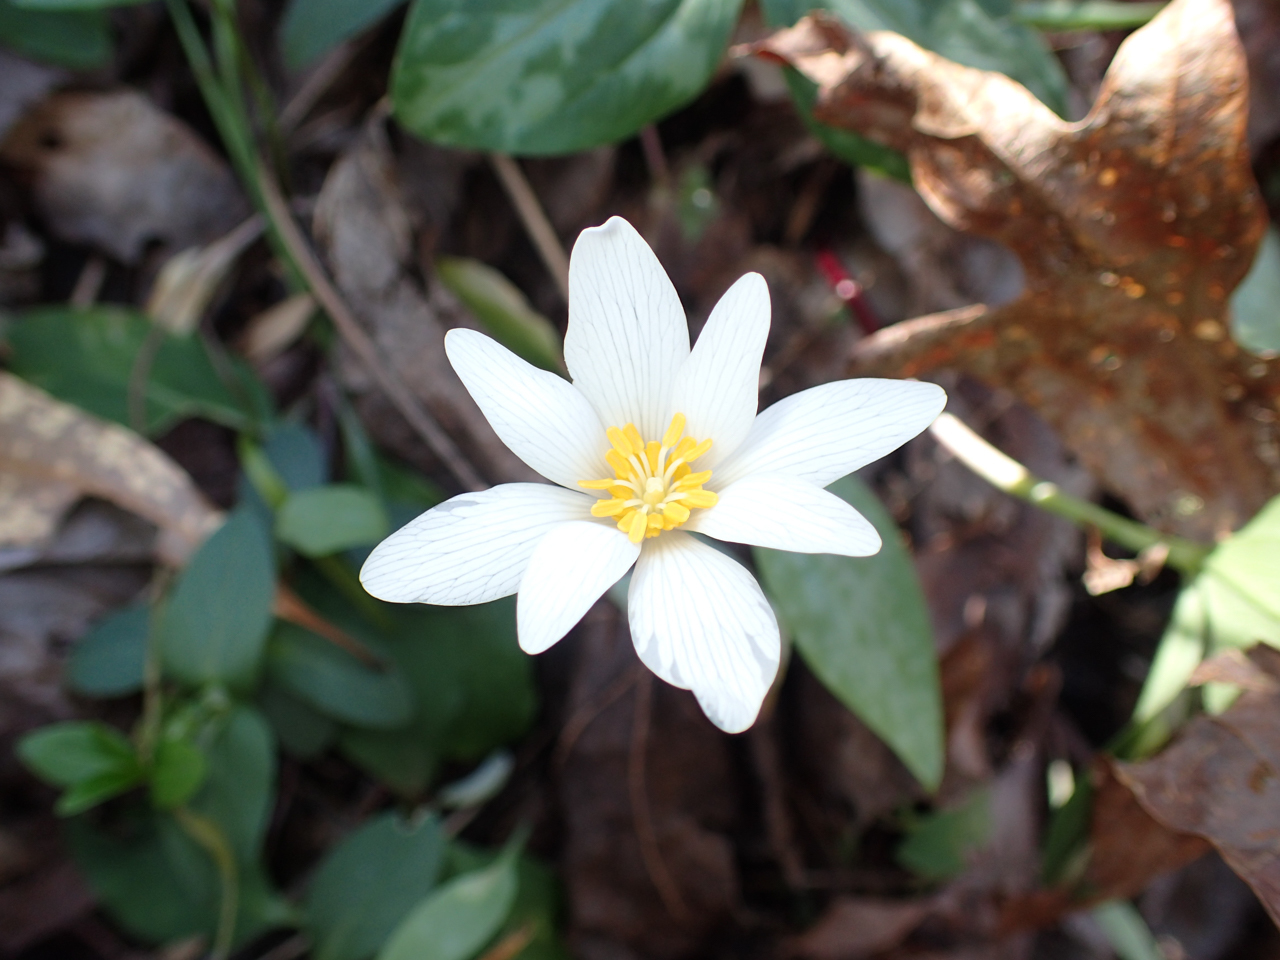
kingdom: Plantae
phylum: Tracheophyta
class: Magnoliopsida
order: Ranunculales
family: Papaveraceae
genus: Sanguinaria
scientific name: Sanguinaria canadensis
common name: Bloodroot
